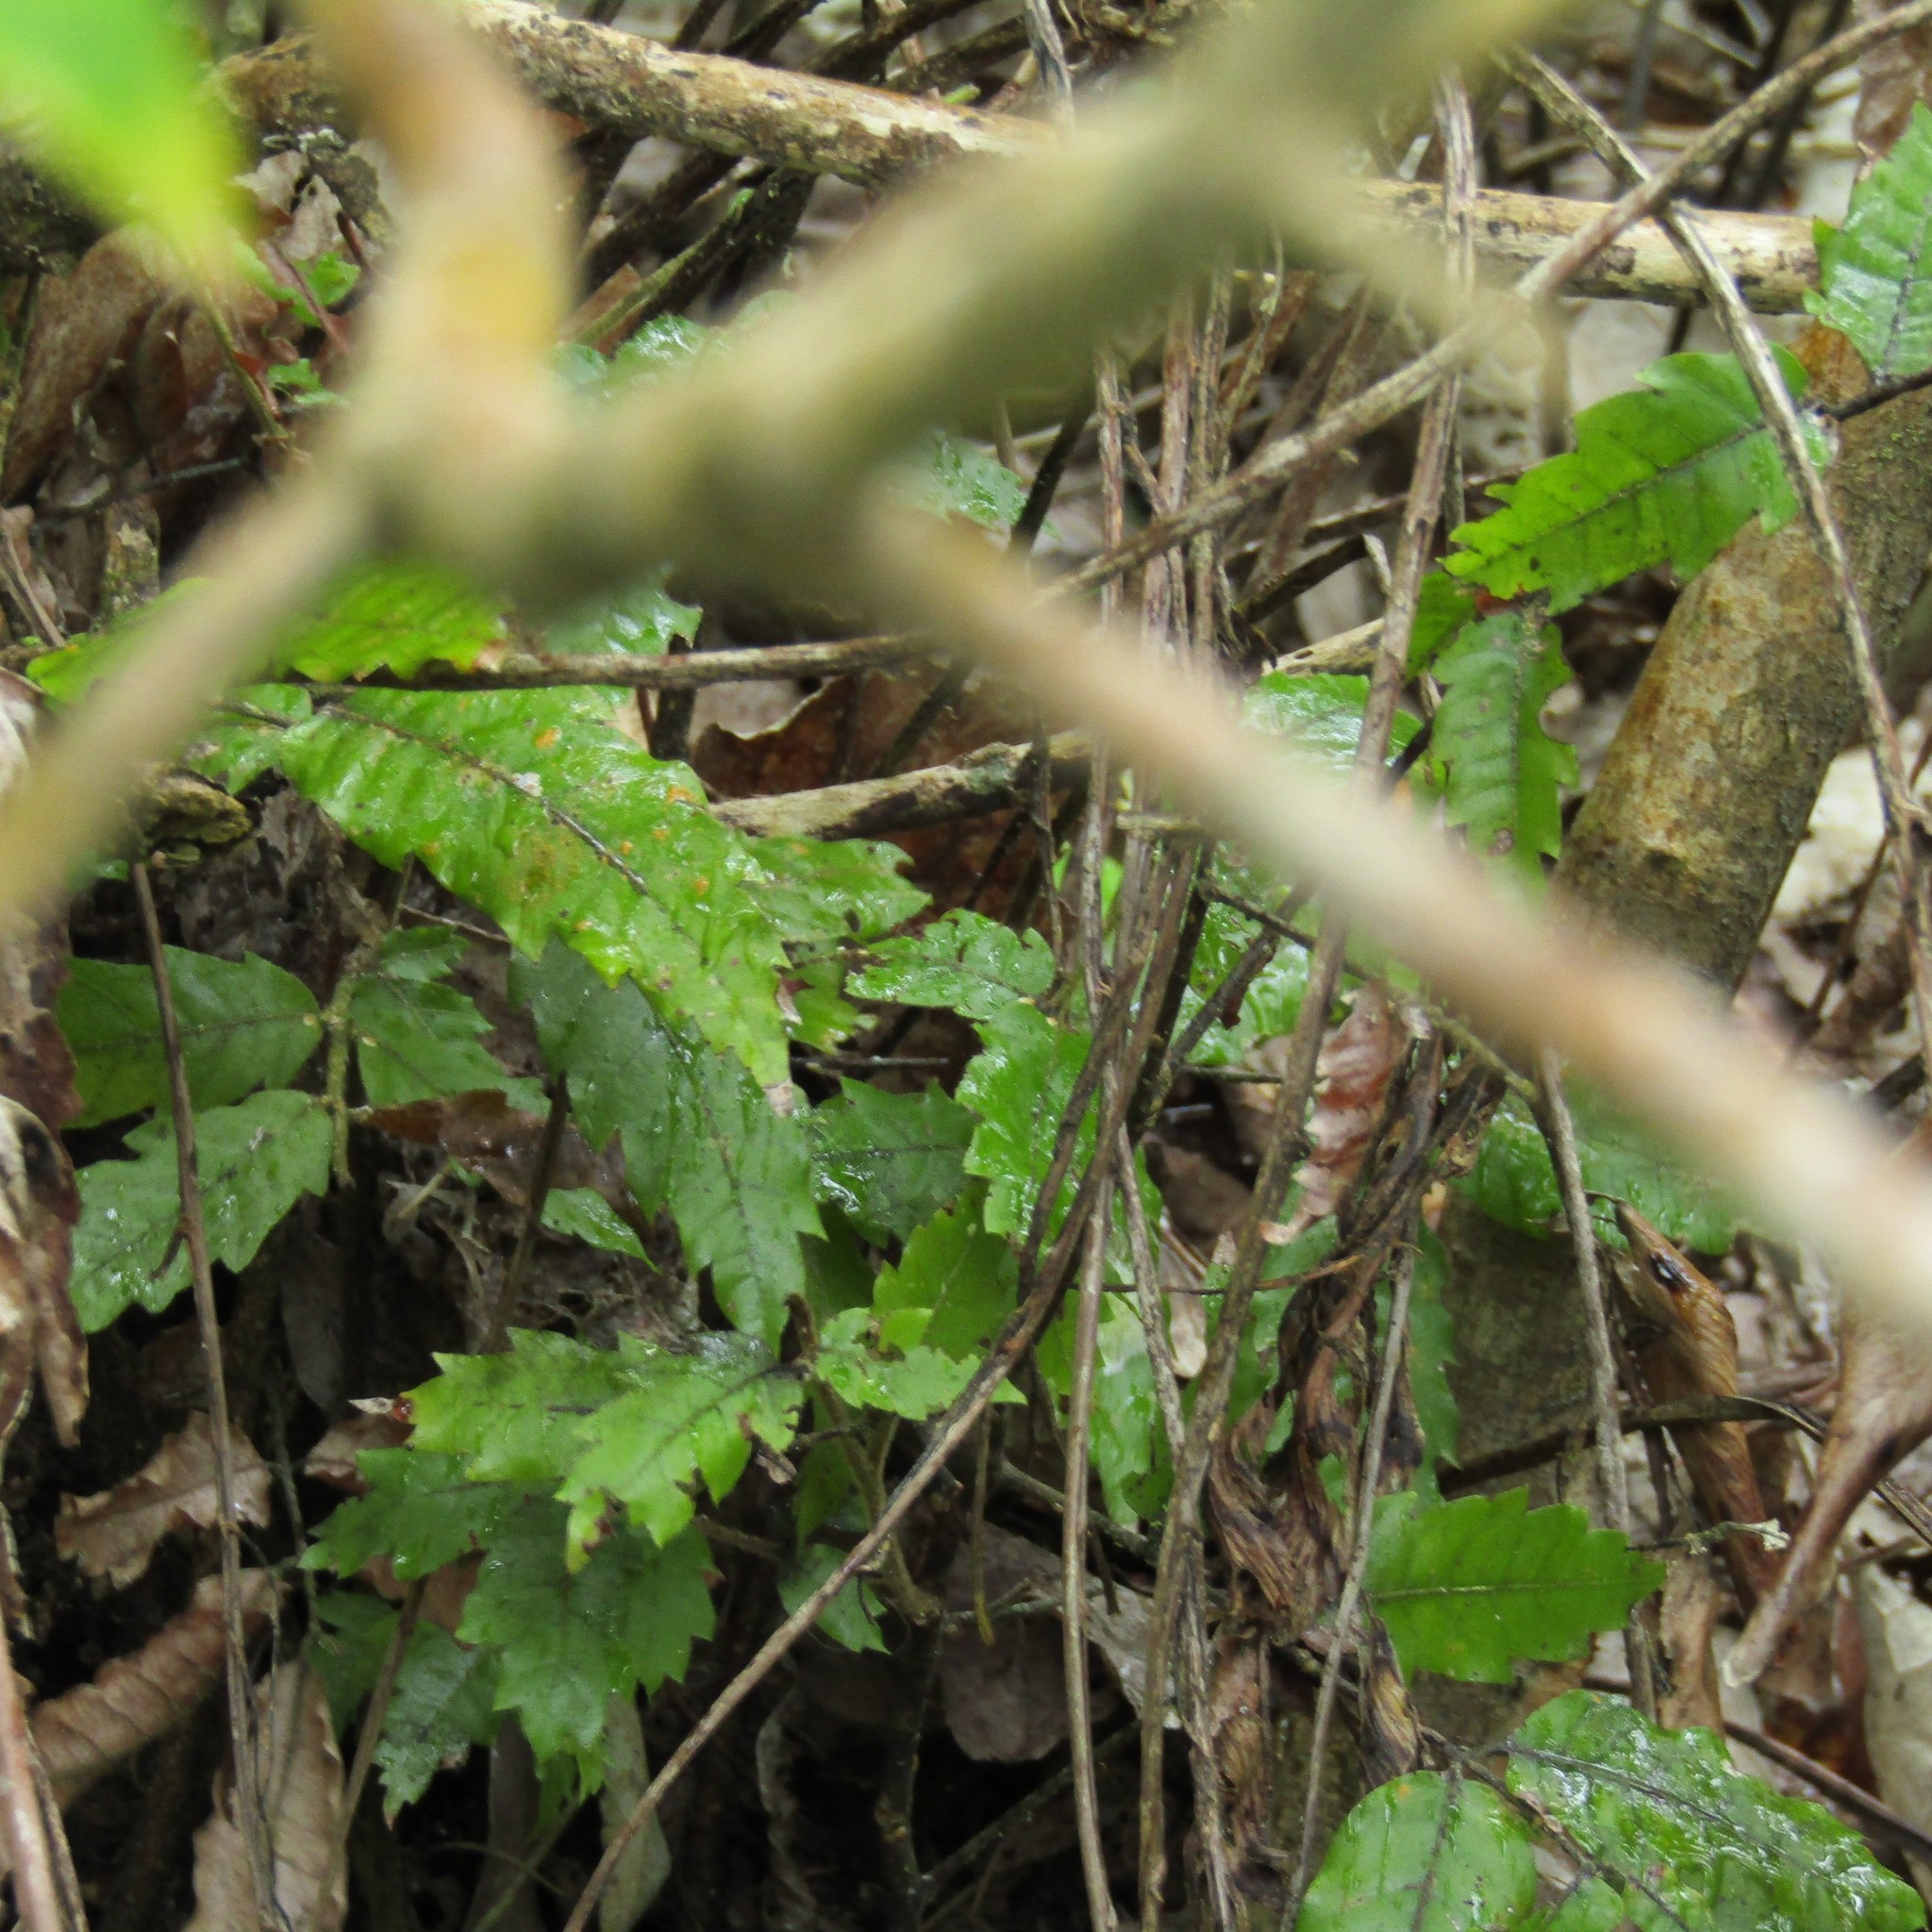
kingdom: Plantae
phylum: Tracheophyta
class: Magnoliopsida
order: Sapindales
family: Sapindaceae
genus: Alectryon
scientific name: Alectryon excelsus
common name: Three kings titoki
